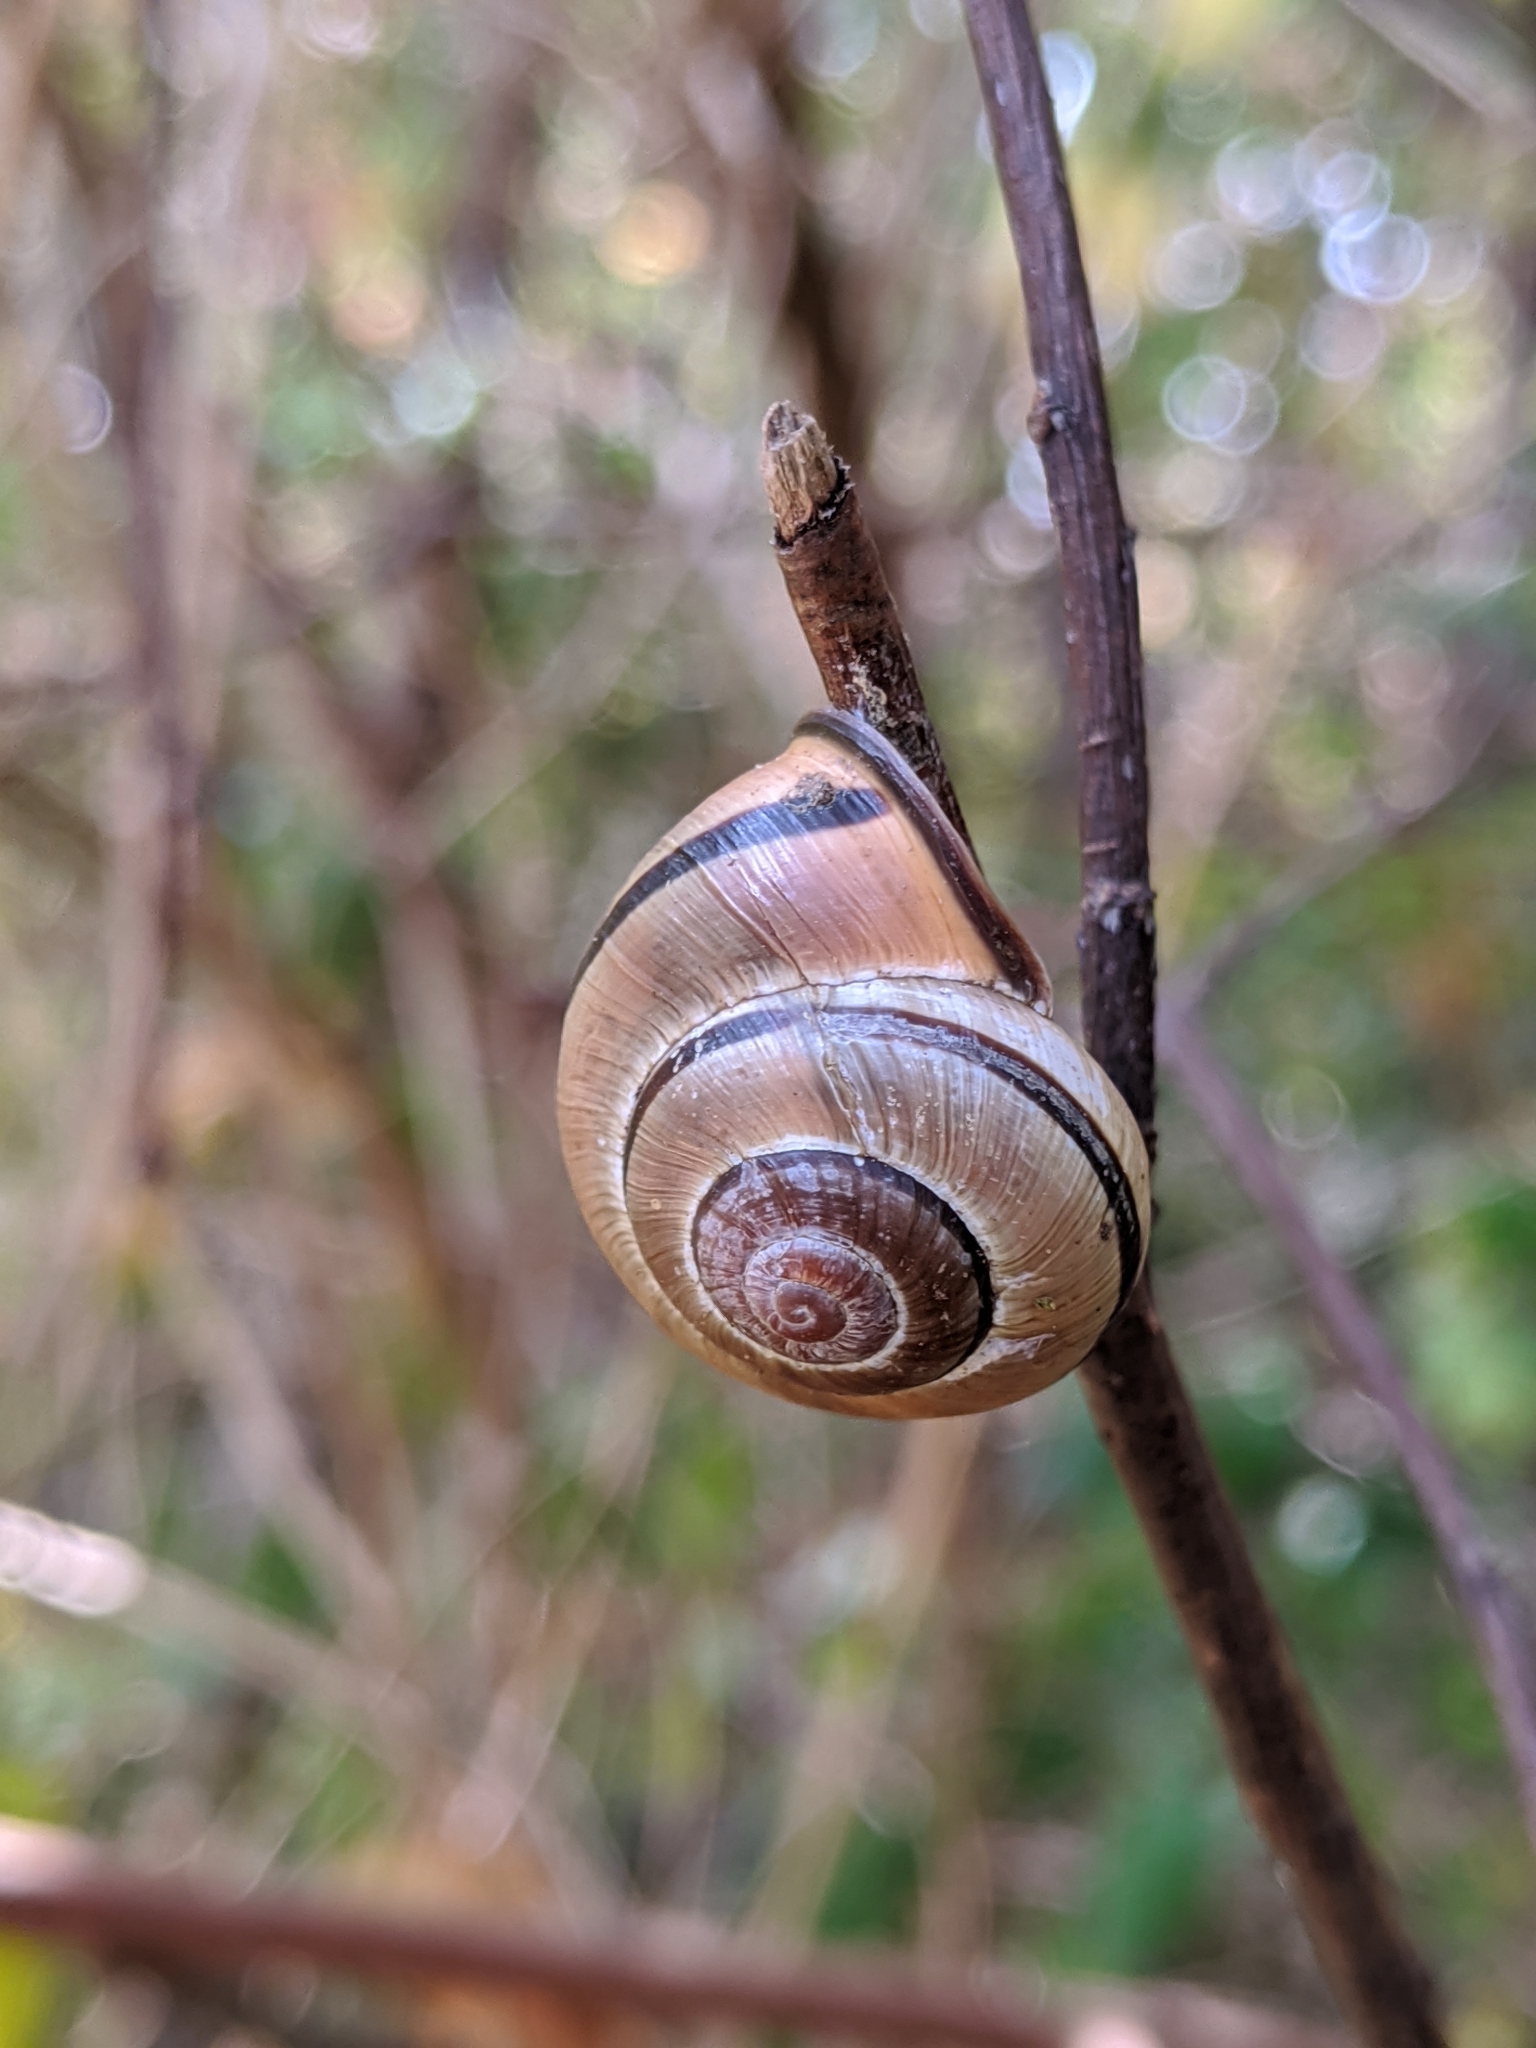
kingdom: Animalia
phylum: Mollusca
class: Gastropoda
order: Stylommatophora
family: Helicidae
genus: Cepaea
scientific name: Cepaea nemoralis
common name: Grovesnail
